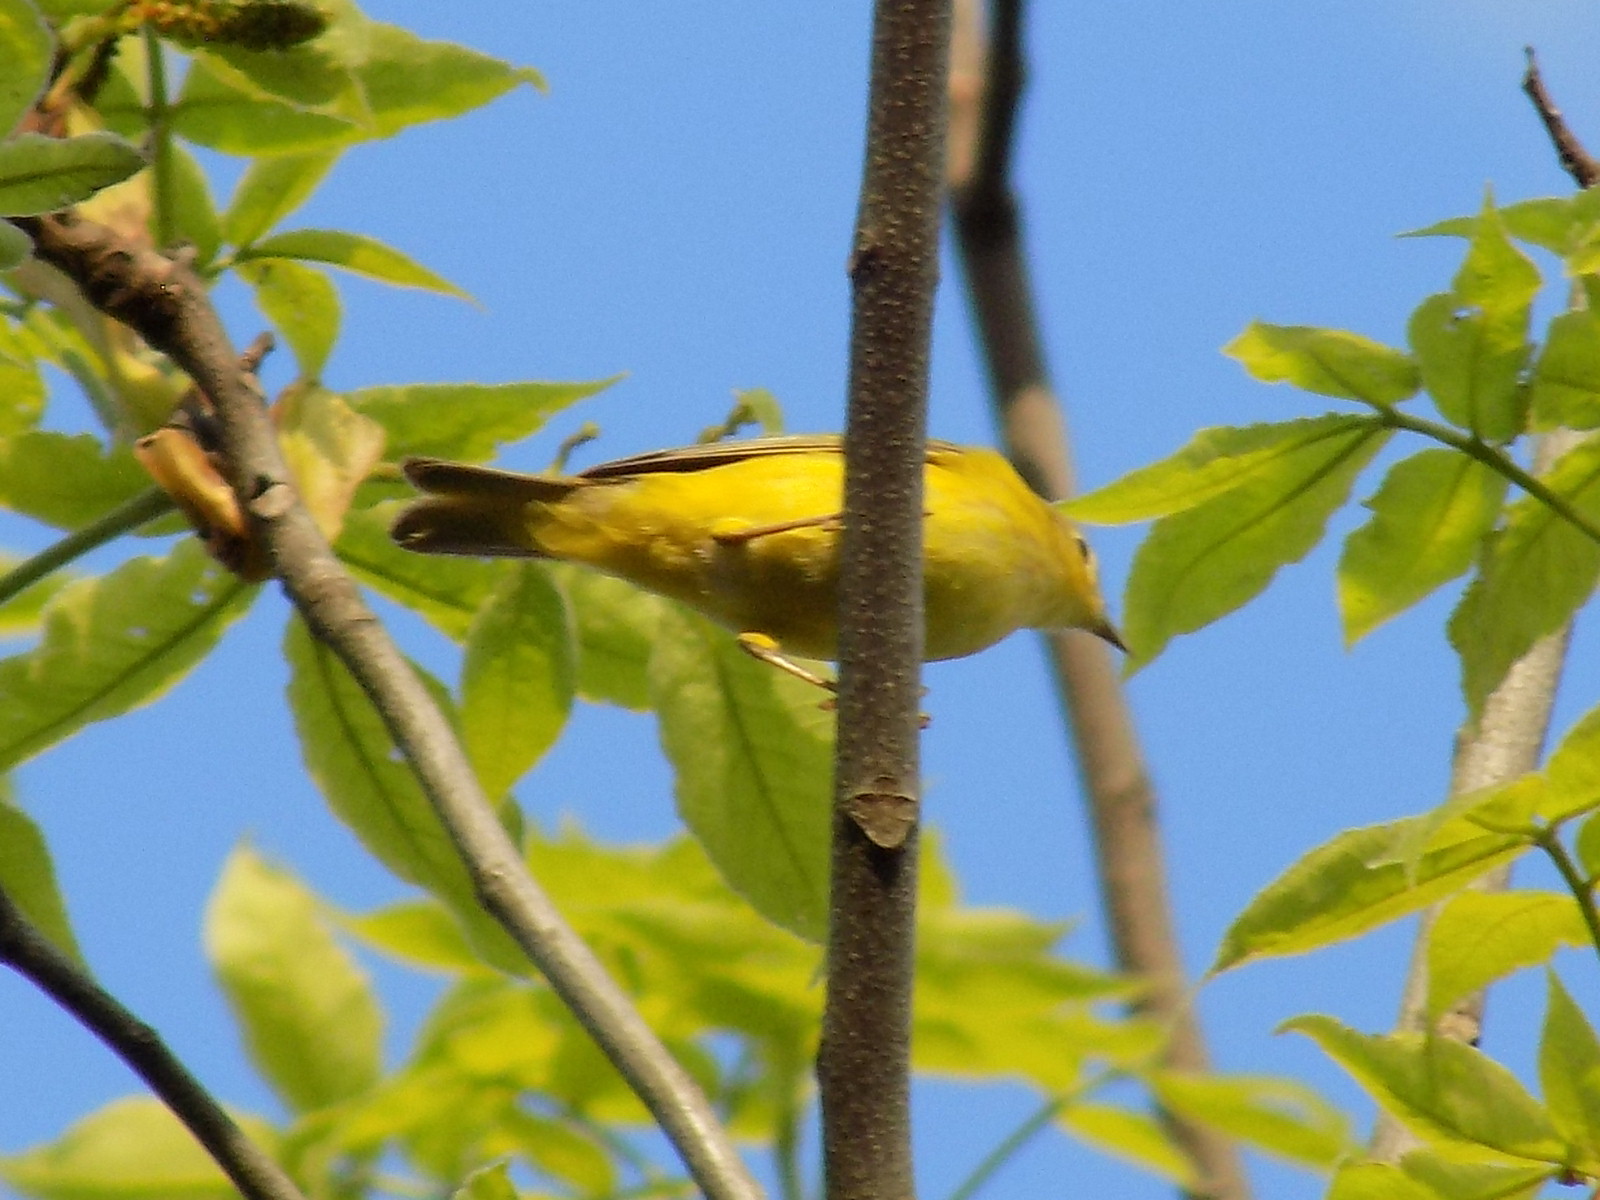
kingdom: Animalia
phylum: Chordata
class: Aves
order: Passeriformes
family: Parulidae
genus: Setophaga
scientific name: Setophaga petechia
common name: Yellow warbler
